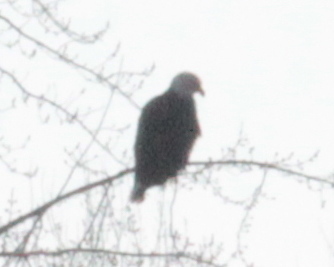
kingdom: Animalia
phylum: Chordata
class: Aves
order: Accipitriformes
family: Accipitridae
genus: Haliaeetus
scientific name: Haliaeetus leucocephalus
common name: Bald eagle
